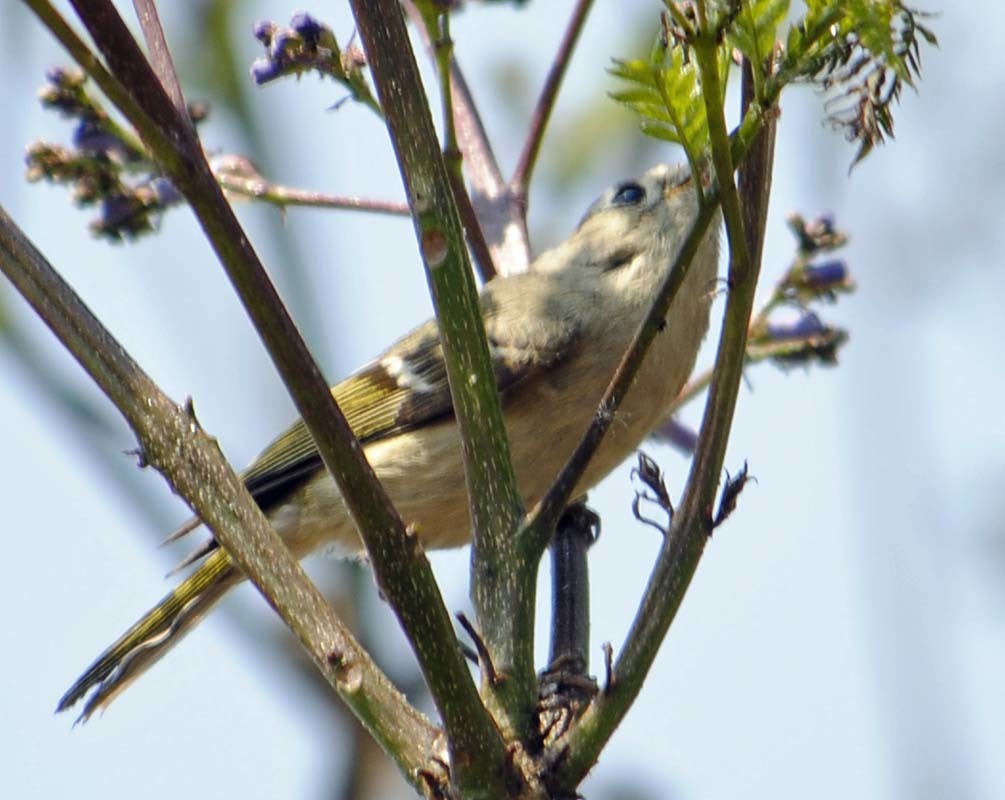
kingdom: Animalia
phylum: Chordata
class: Aves
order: Passeriformes
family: Regulidae
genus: Regulus
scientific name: Regulus calendula
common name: Ruby-crowned kinglet
